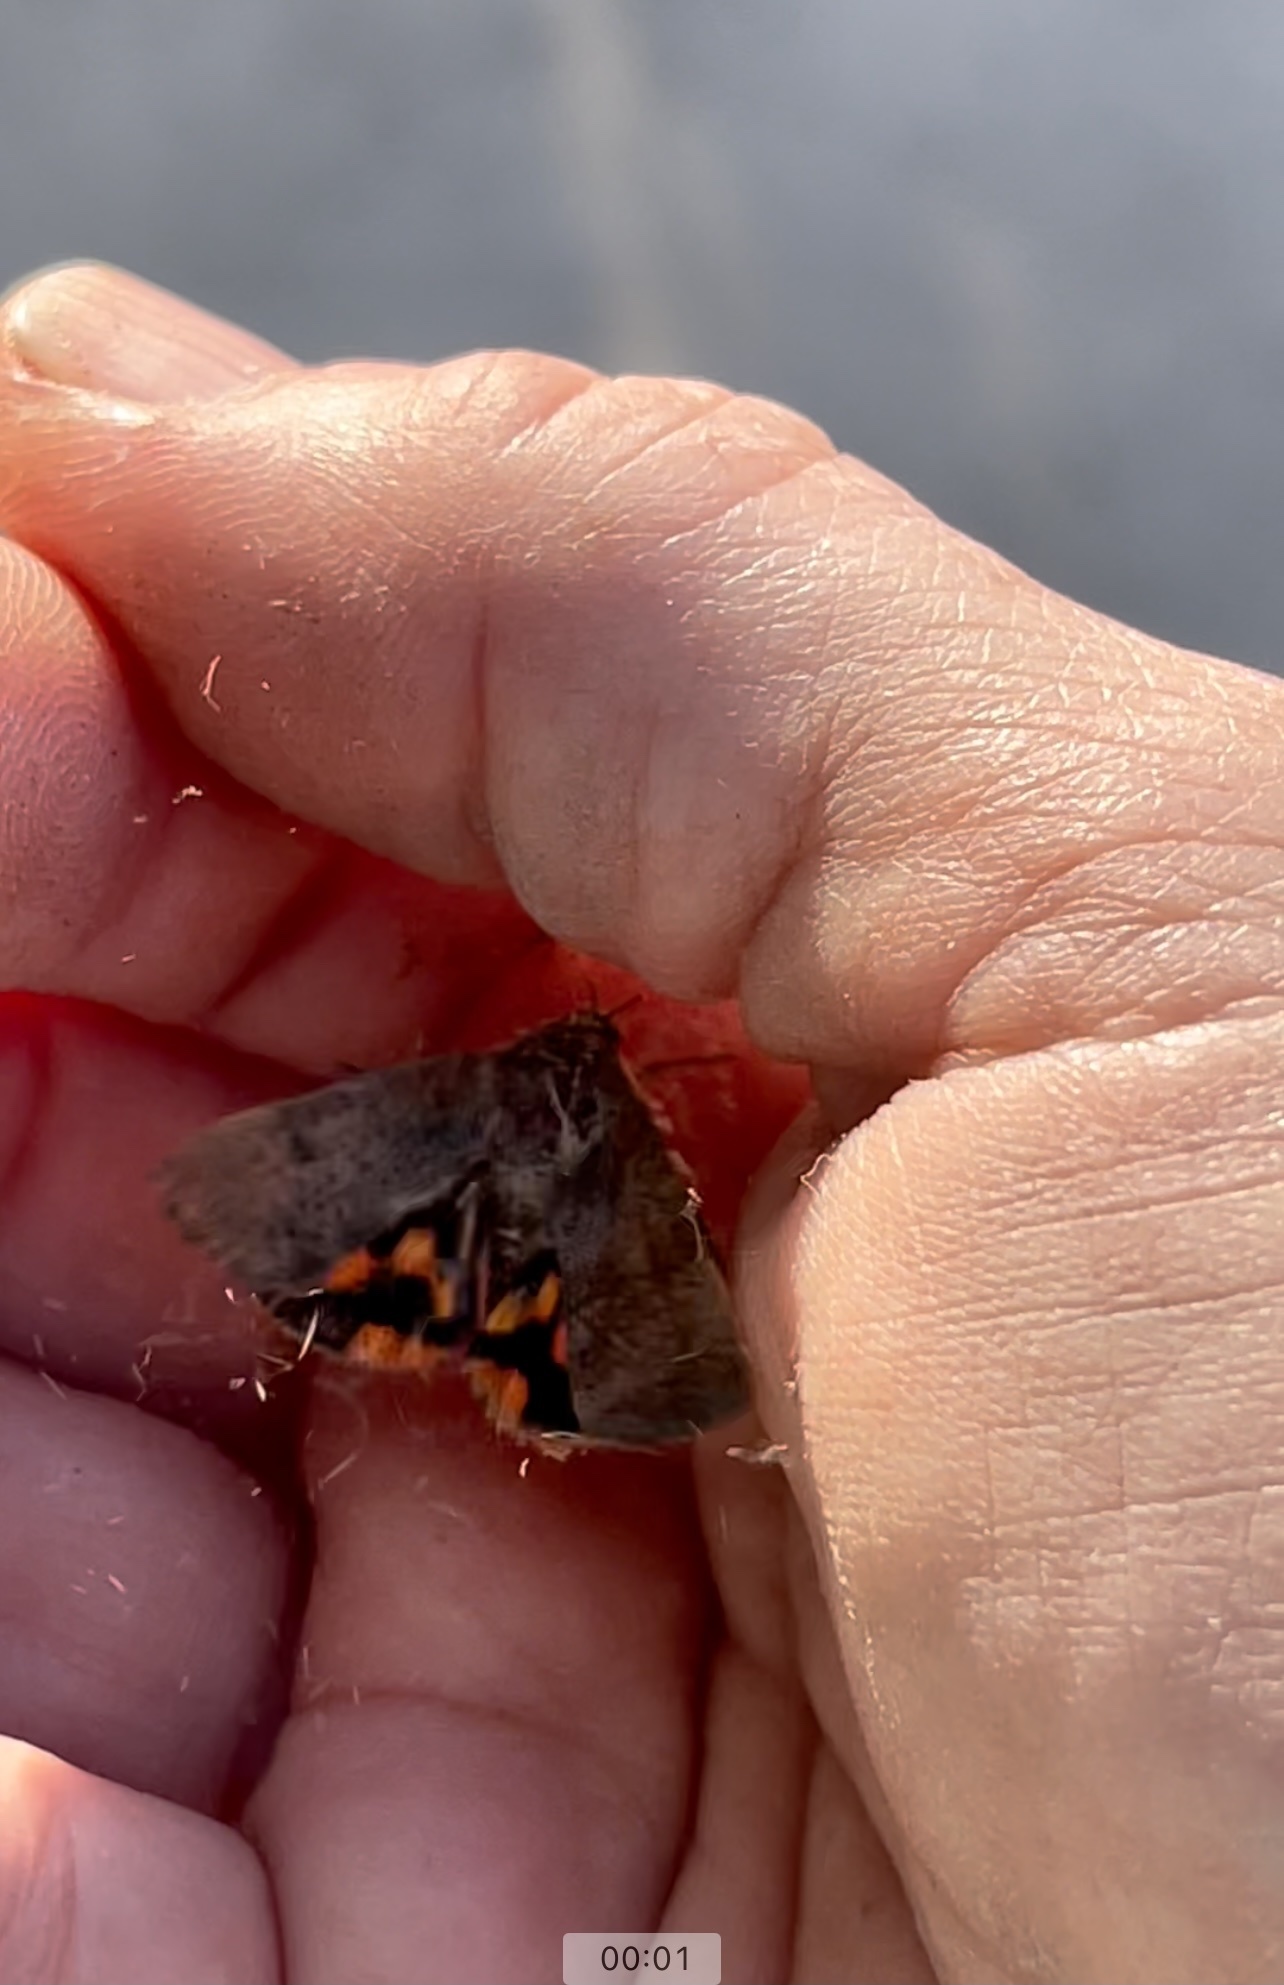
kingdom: Animalia
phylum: Arthropoda
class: Insecta
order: Lepidoptera
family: Hyblaeidae
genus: Hyblaea
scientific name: Hyblaea puera
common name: Teak defoliator moth
